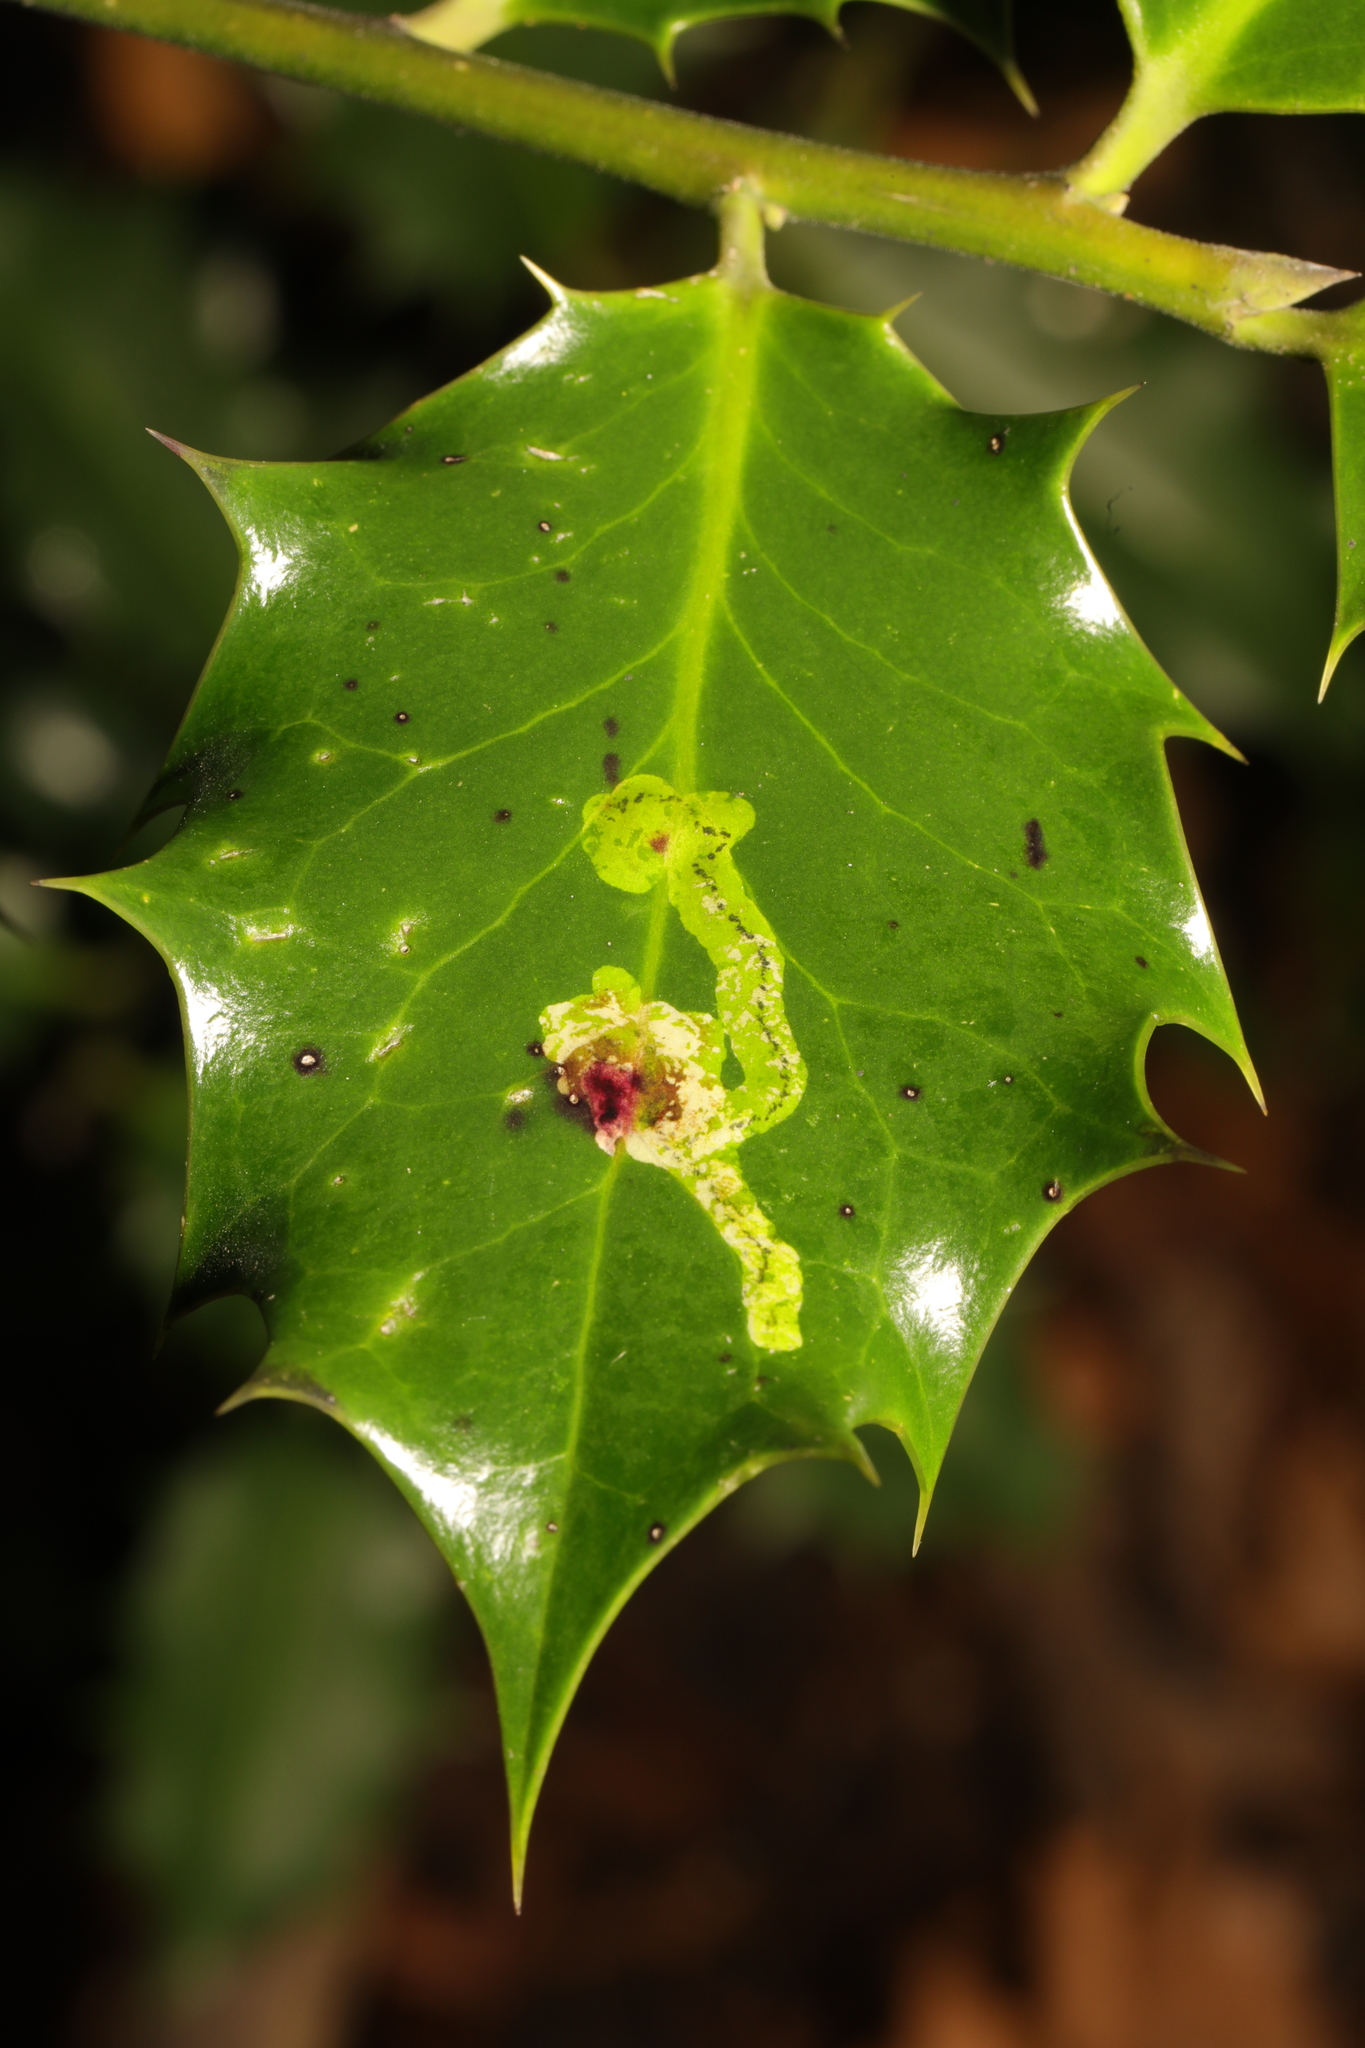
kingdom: Animalia
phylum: Arthropoda
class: Insecta
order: Diptera
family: Agromyzidae
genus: Phytomyza
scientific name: Phytomyza ilicis
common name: Holly leafminer
